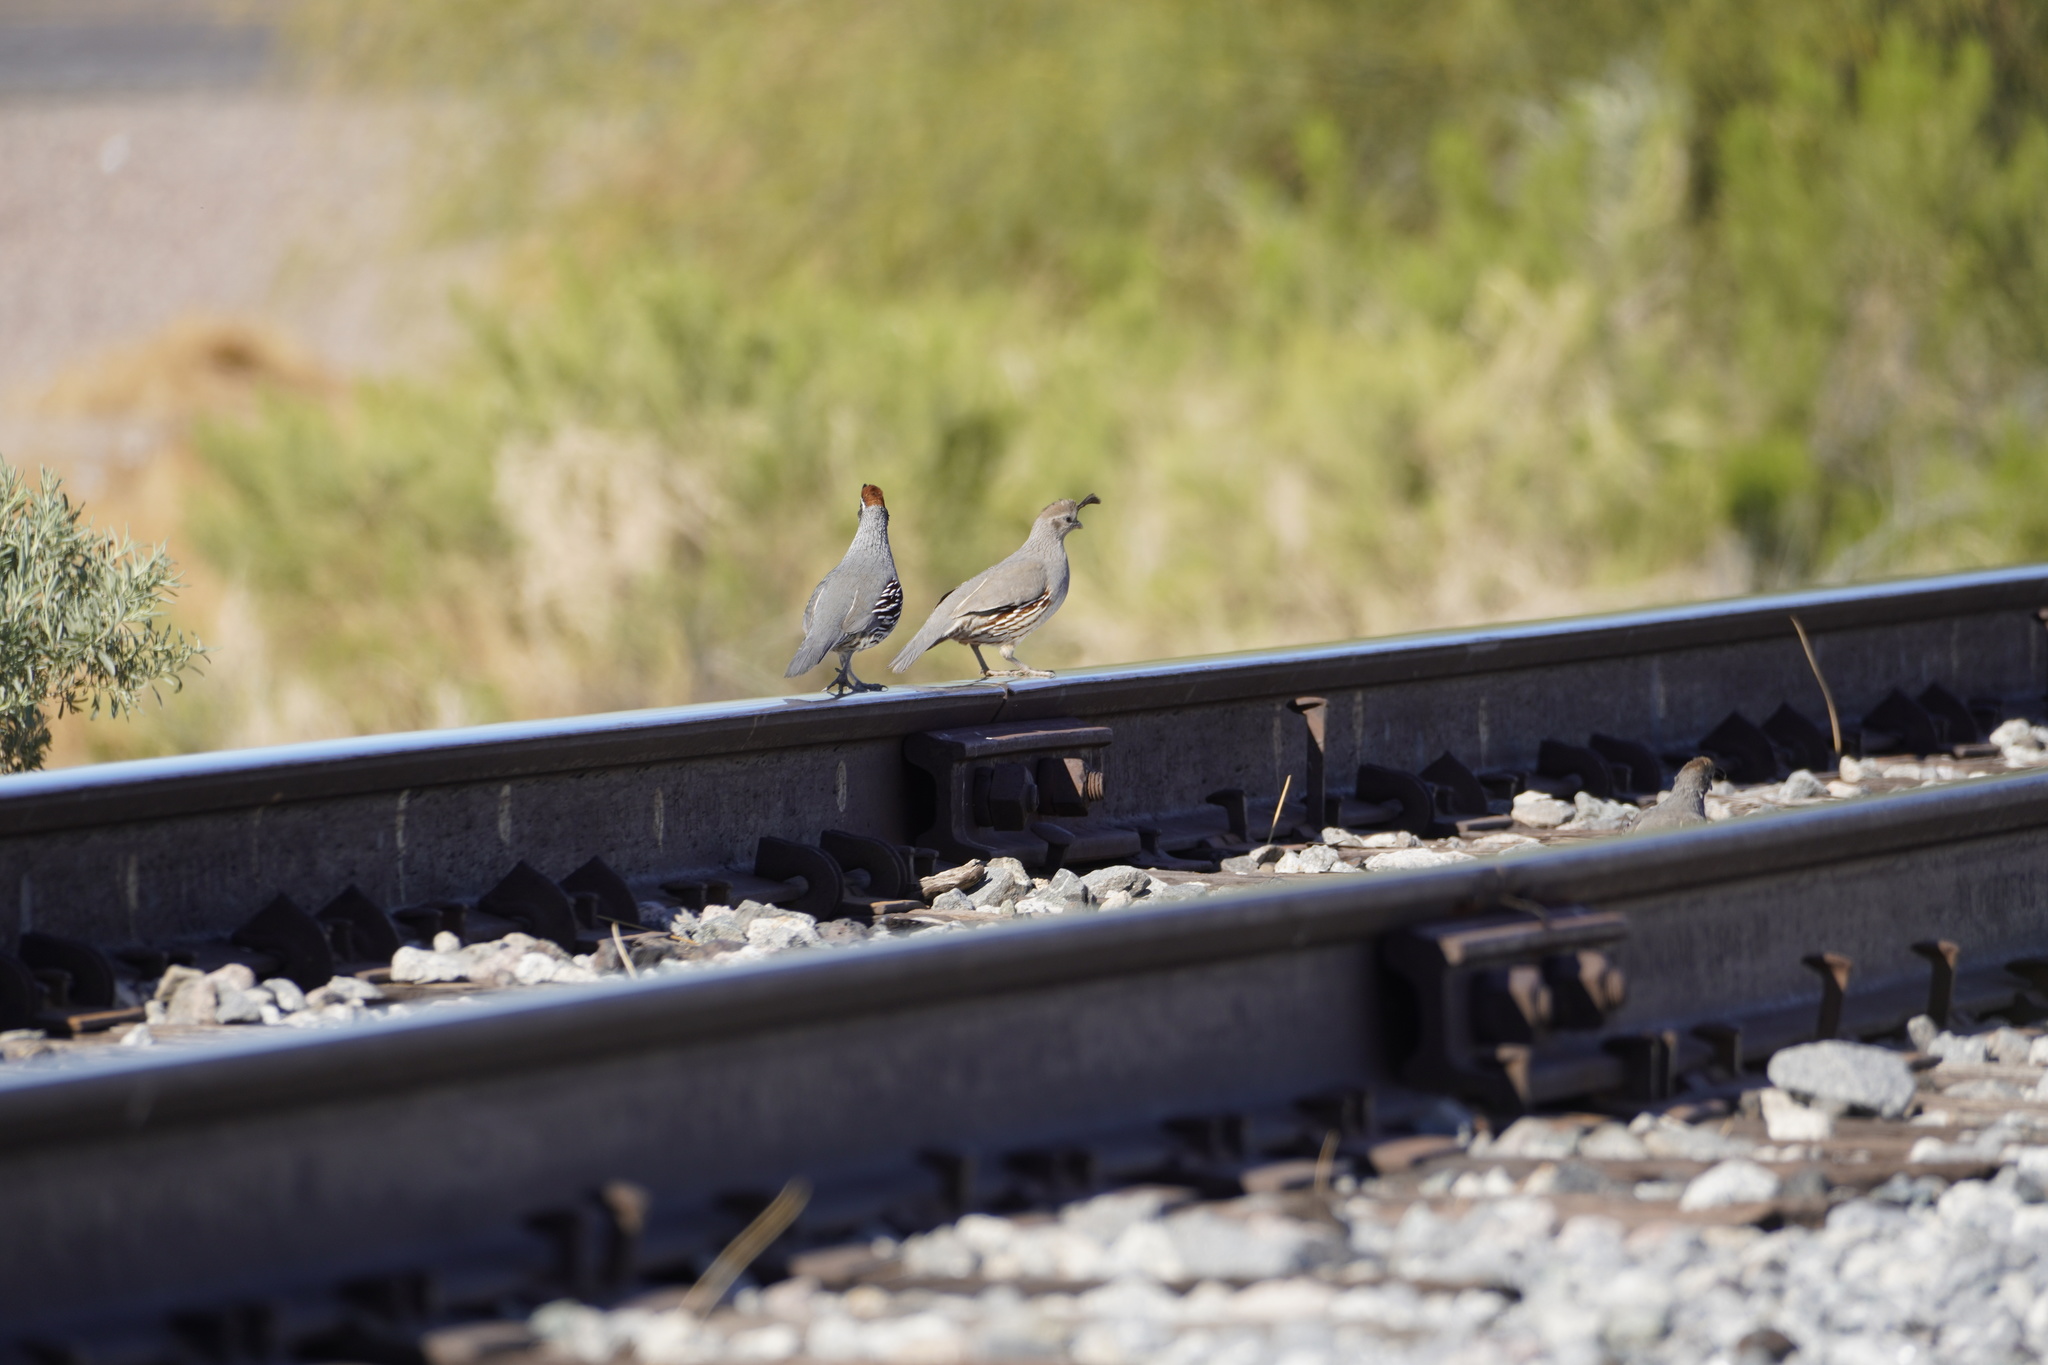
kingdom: Animalia
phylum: Chordata
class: Aves
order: Galliformes
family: Odontophoridae
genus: Callipepla
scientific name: Callipepla gambelii
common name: Gambel's quail
